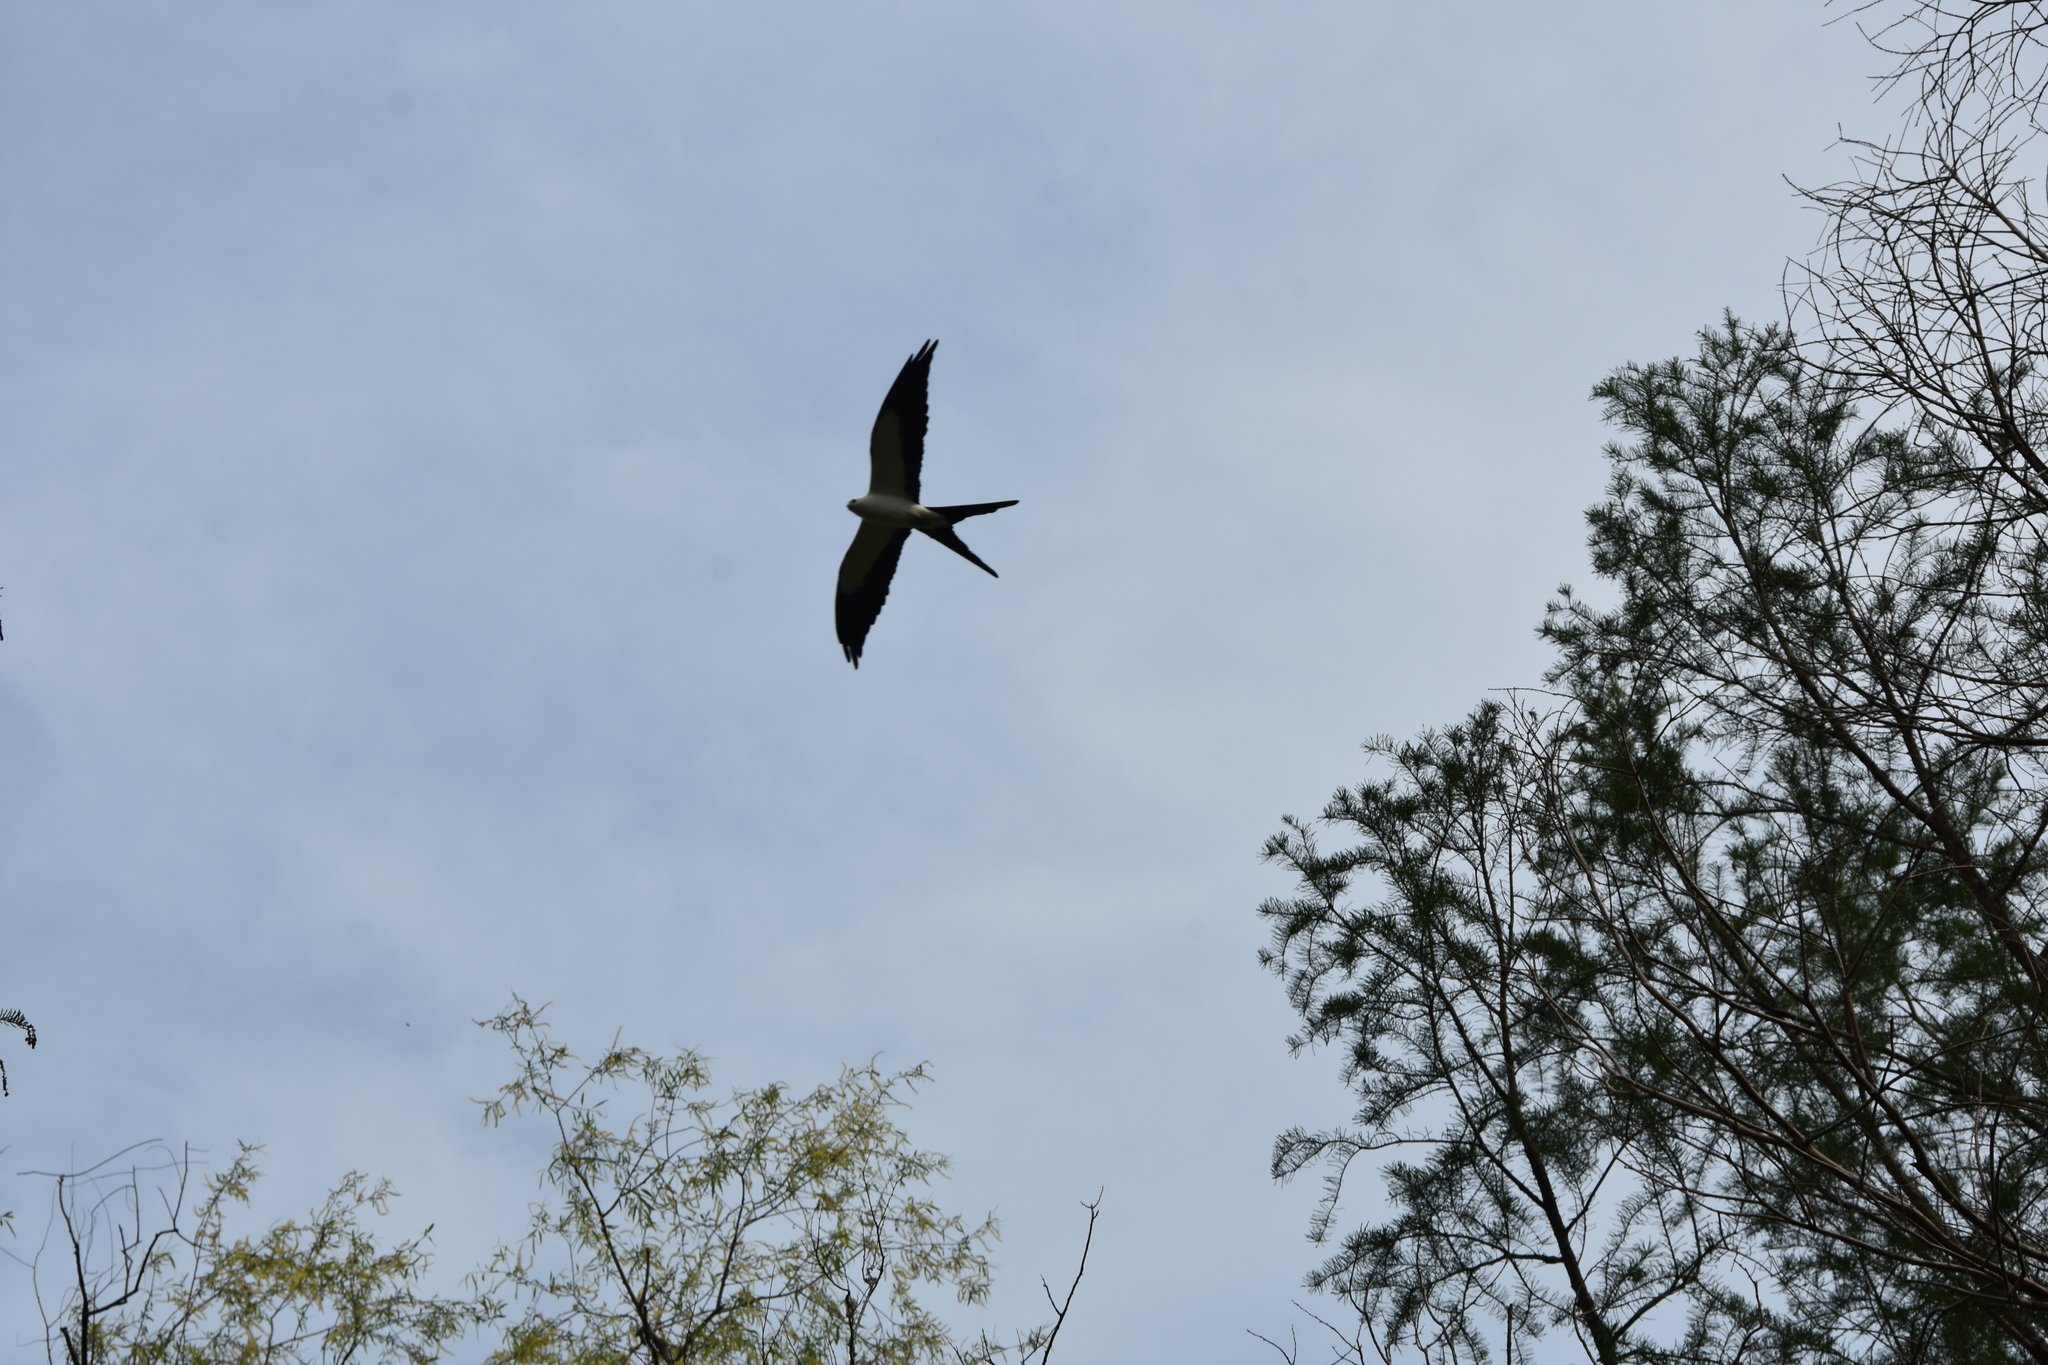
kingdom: Animalia
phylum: Chordata
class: Aves
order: Accipitriformes
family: Accipitridae
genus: Elanoides
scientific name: Elanoides forficatus
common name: Swallow-tailed kite
